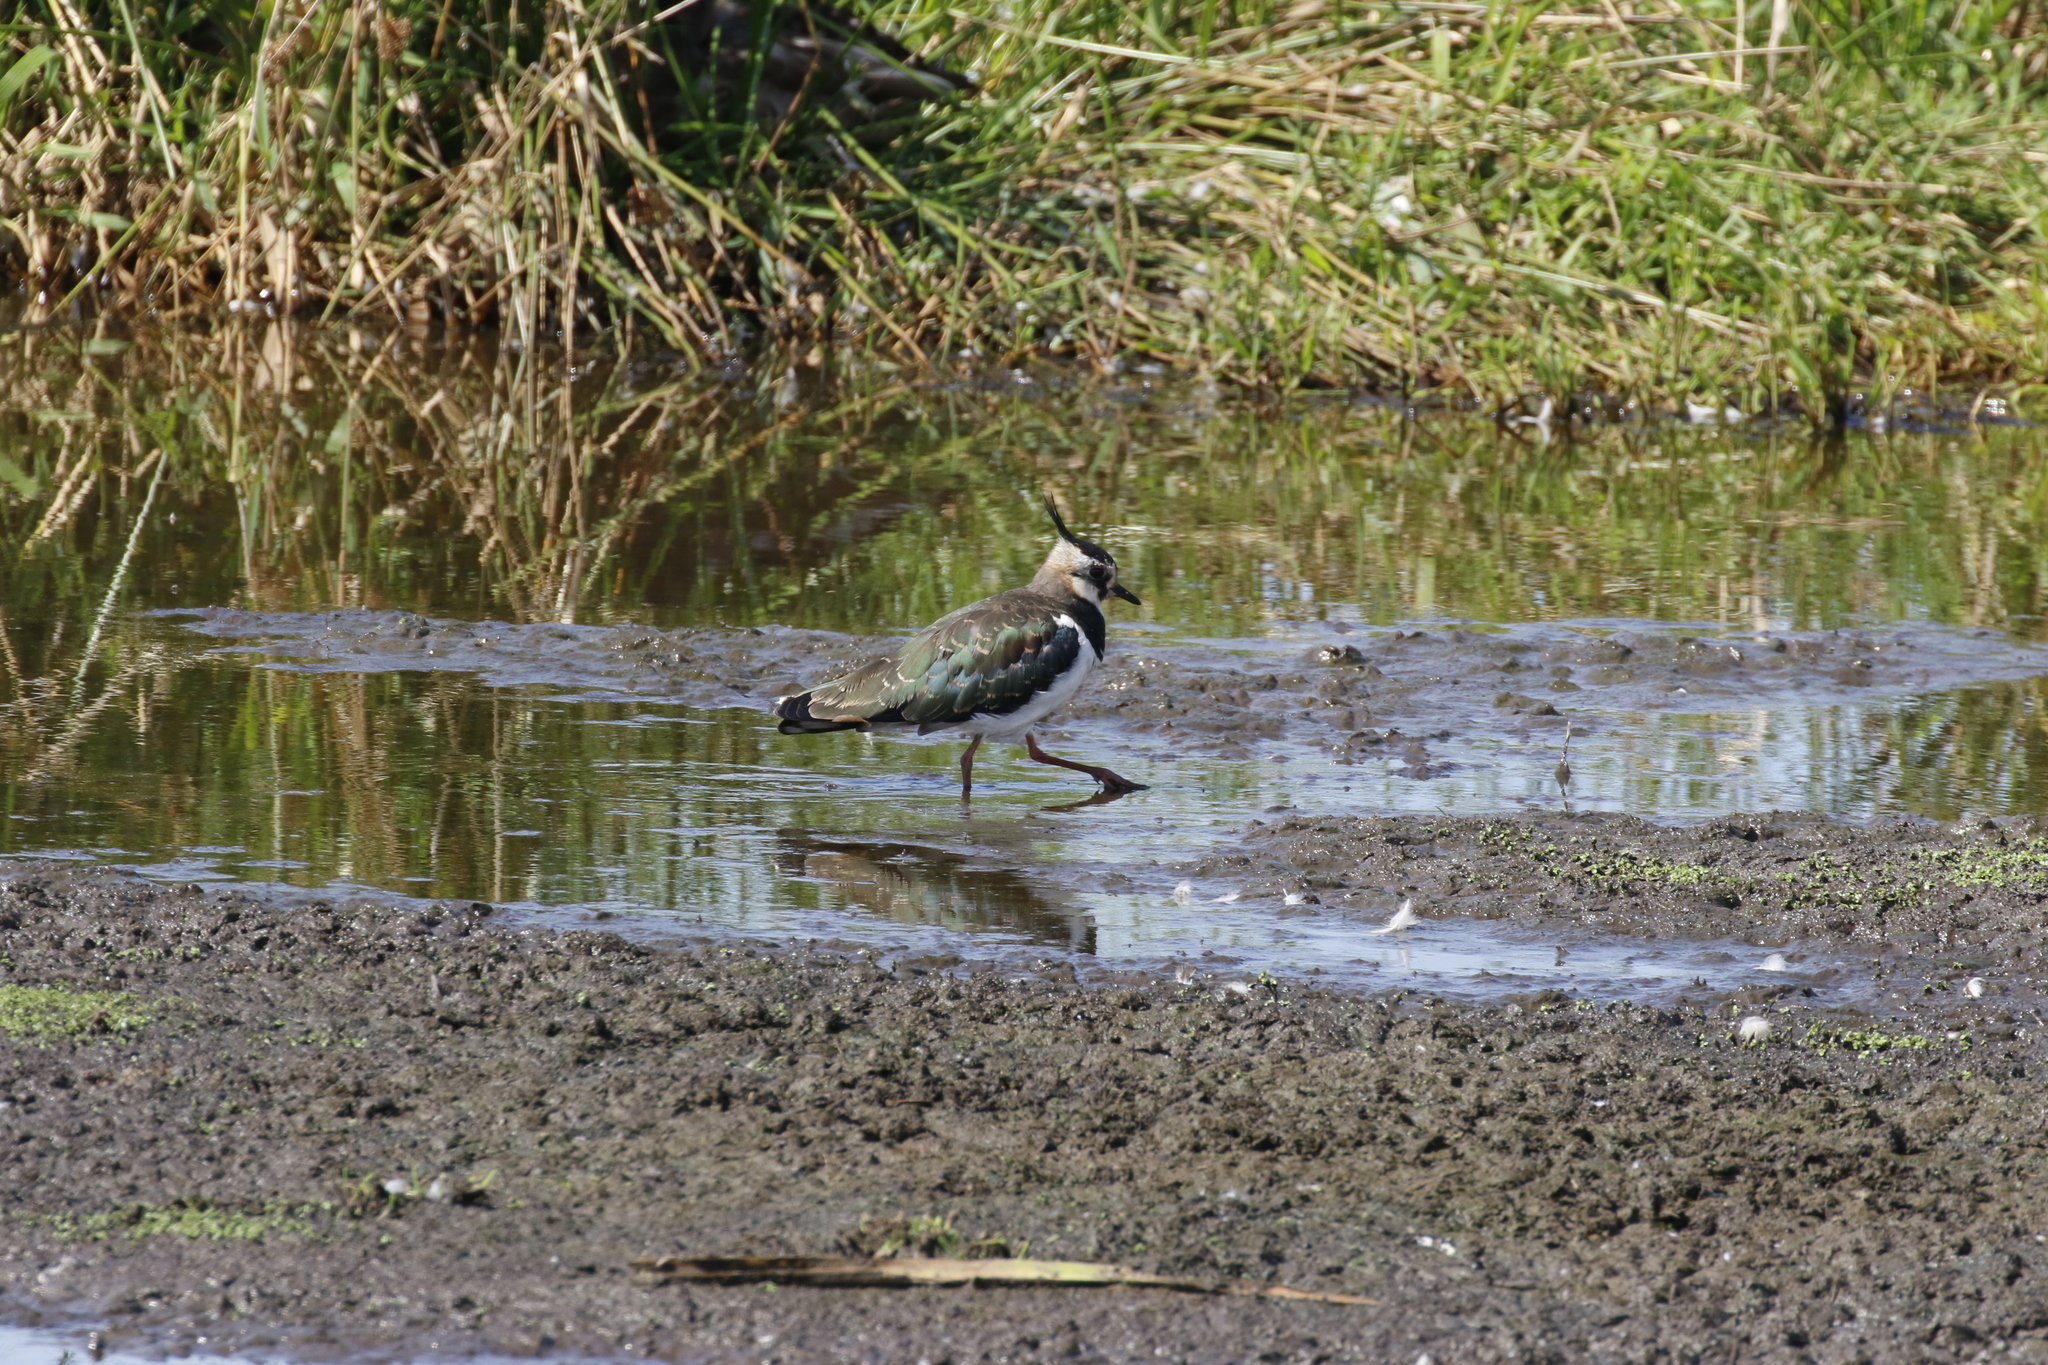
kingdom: Animalia
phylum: Chordata
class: Aves
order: Charadriiformes
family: Charadriidae
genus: Vanellus
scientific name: Vanellus vanellus
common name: Northern lapwing
